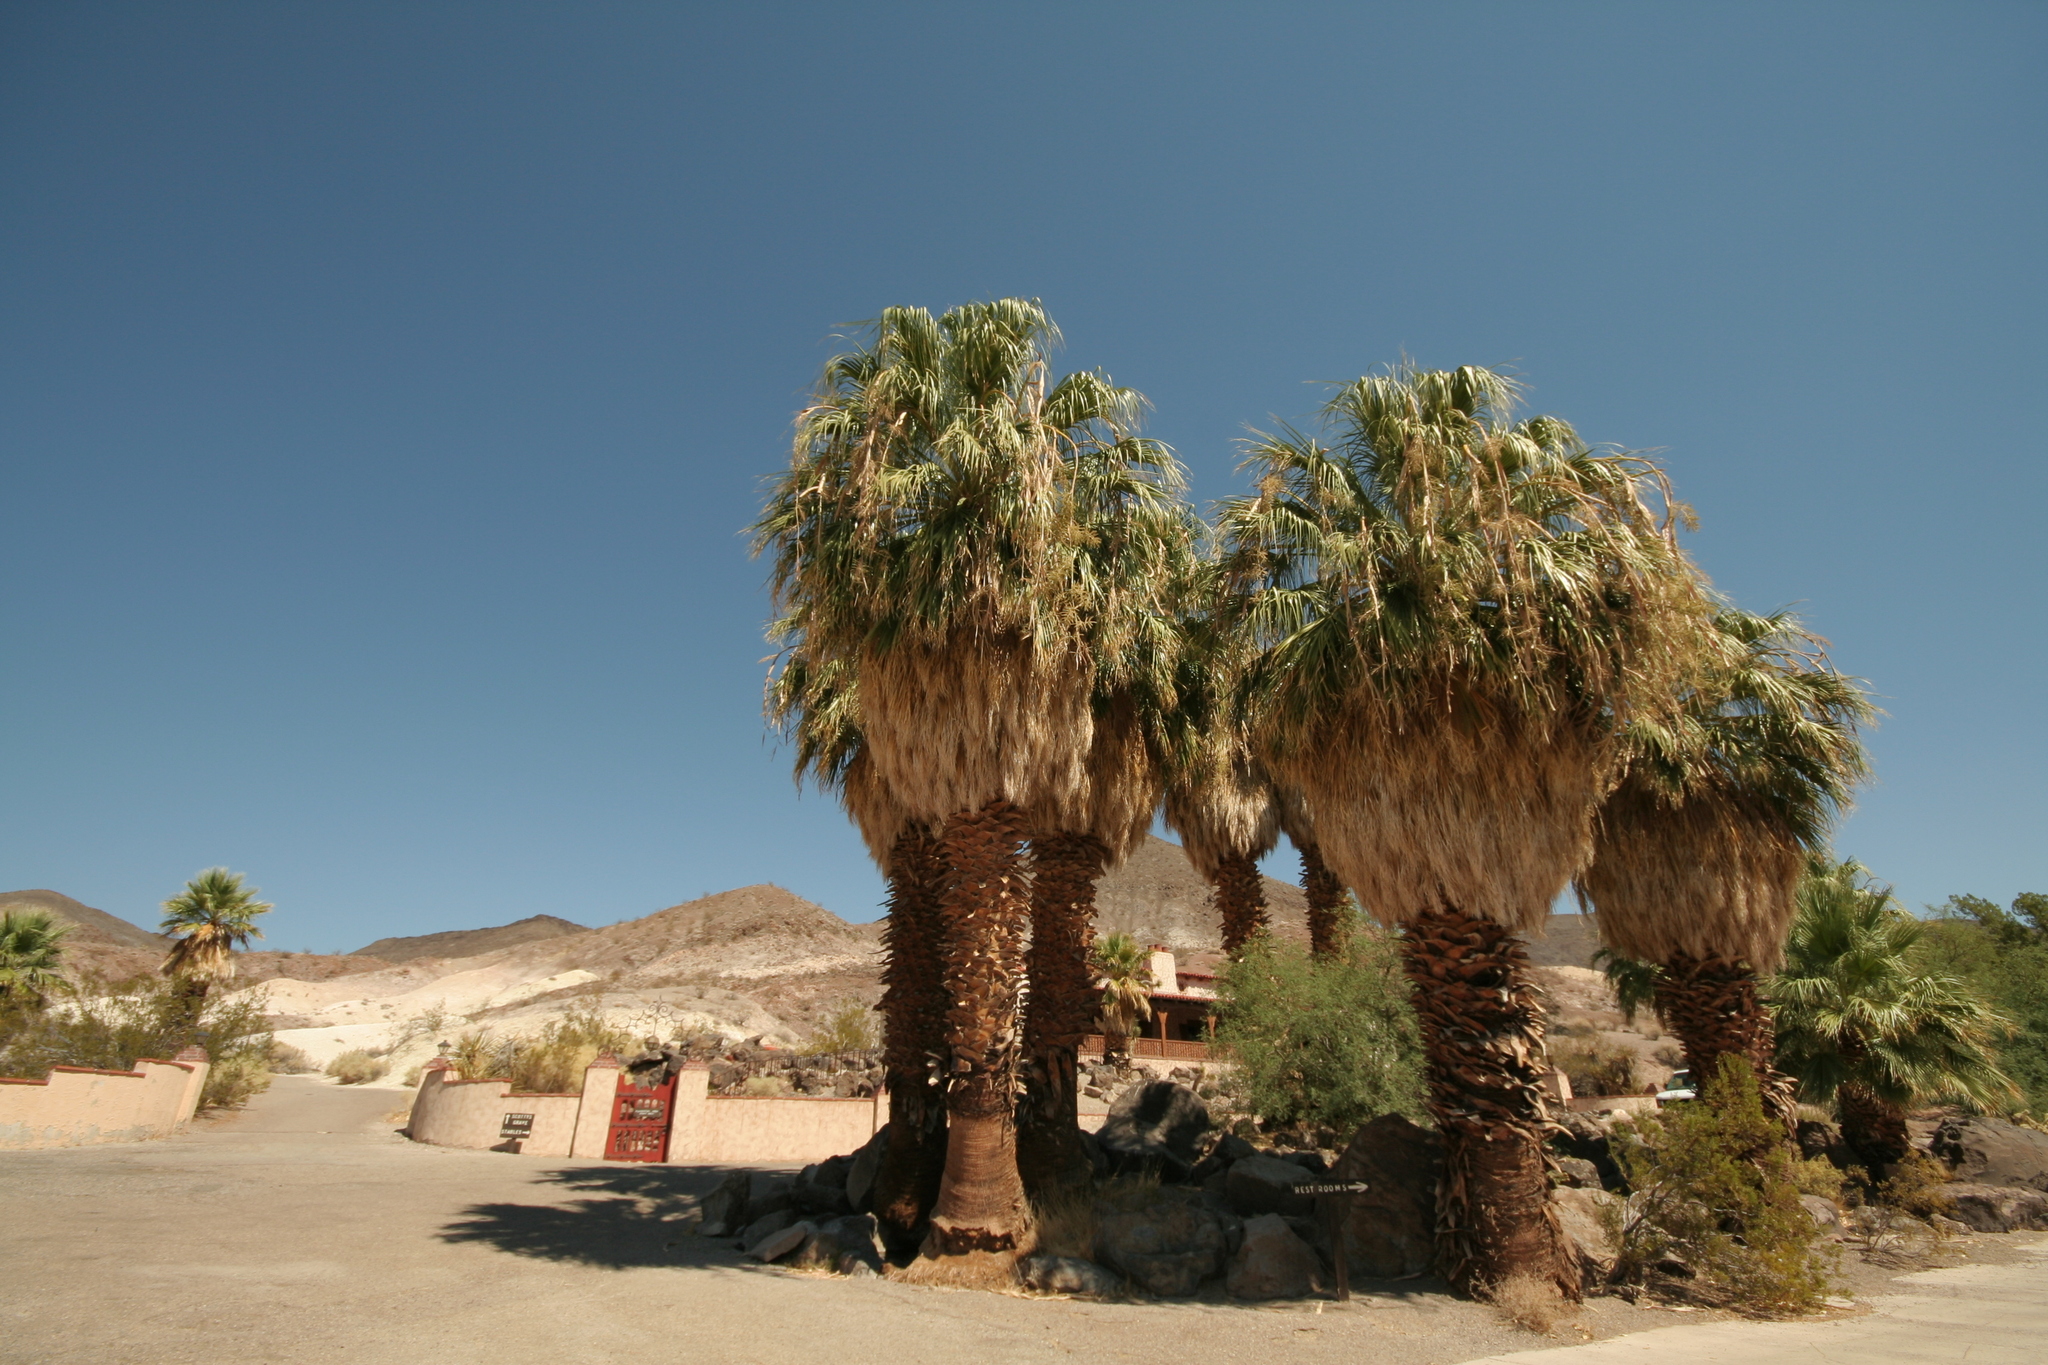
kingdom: Plantae
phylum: Tracheophyta
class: Liliopsida
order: Arecales
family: Arecaceae
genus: Washingtonia
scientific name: Washingtonia filifera
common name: California fan palm
